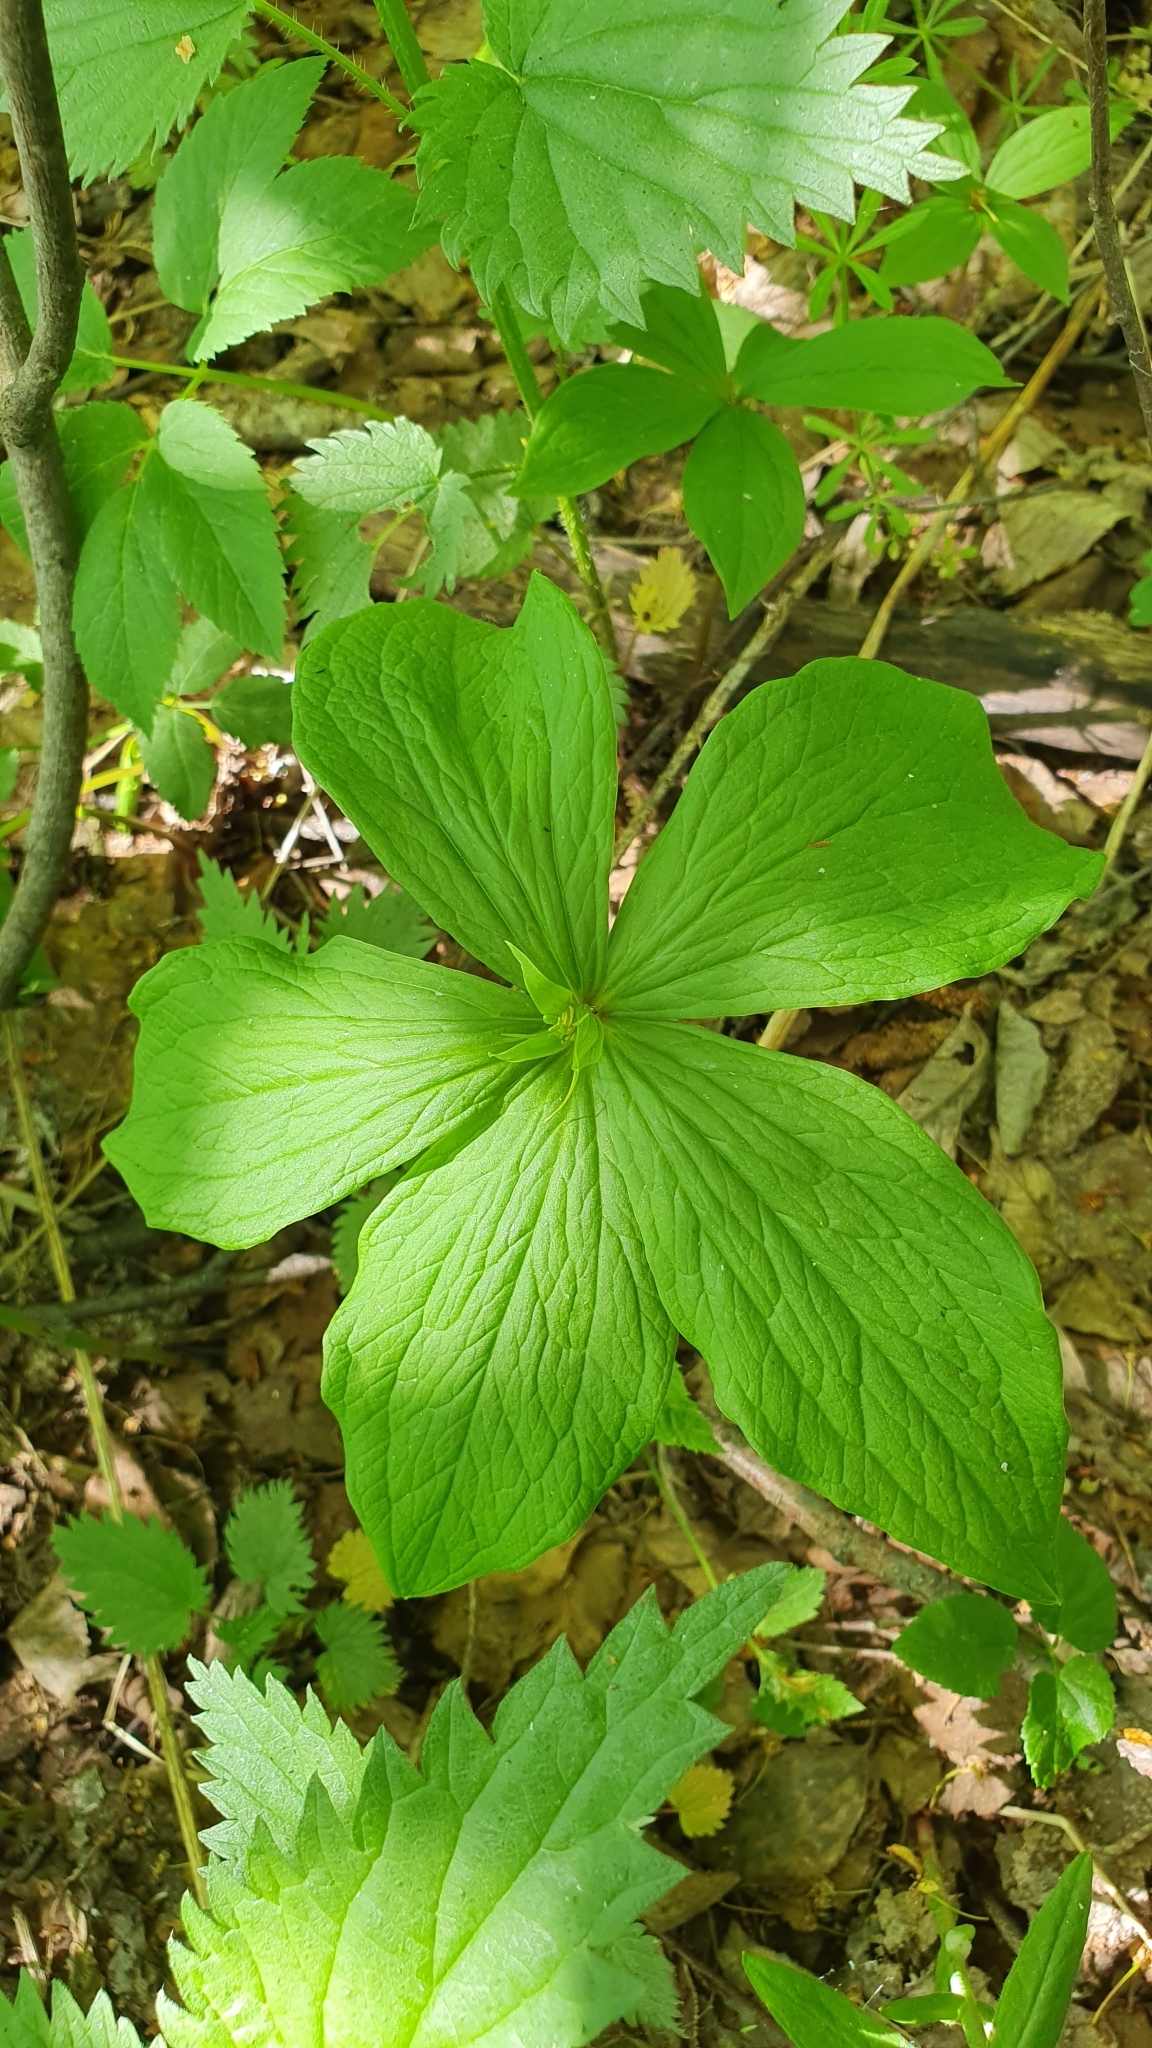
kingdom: Plantae
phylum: Tracheophyta
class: Liliopsida
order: Liliales
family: Melanthiaceae
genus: Paris
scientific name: Paris quadrifolia
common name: Herb-paris
